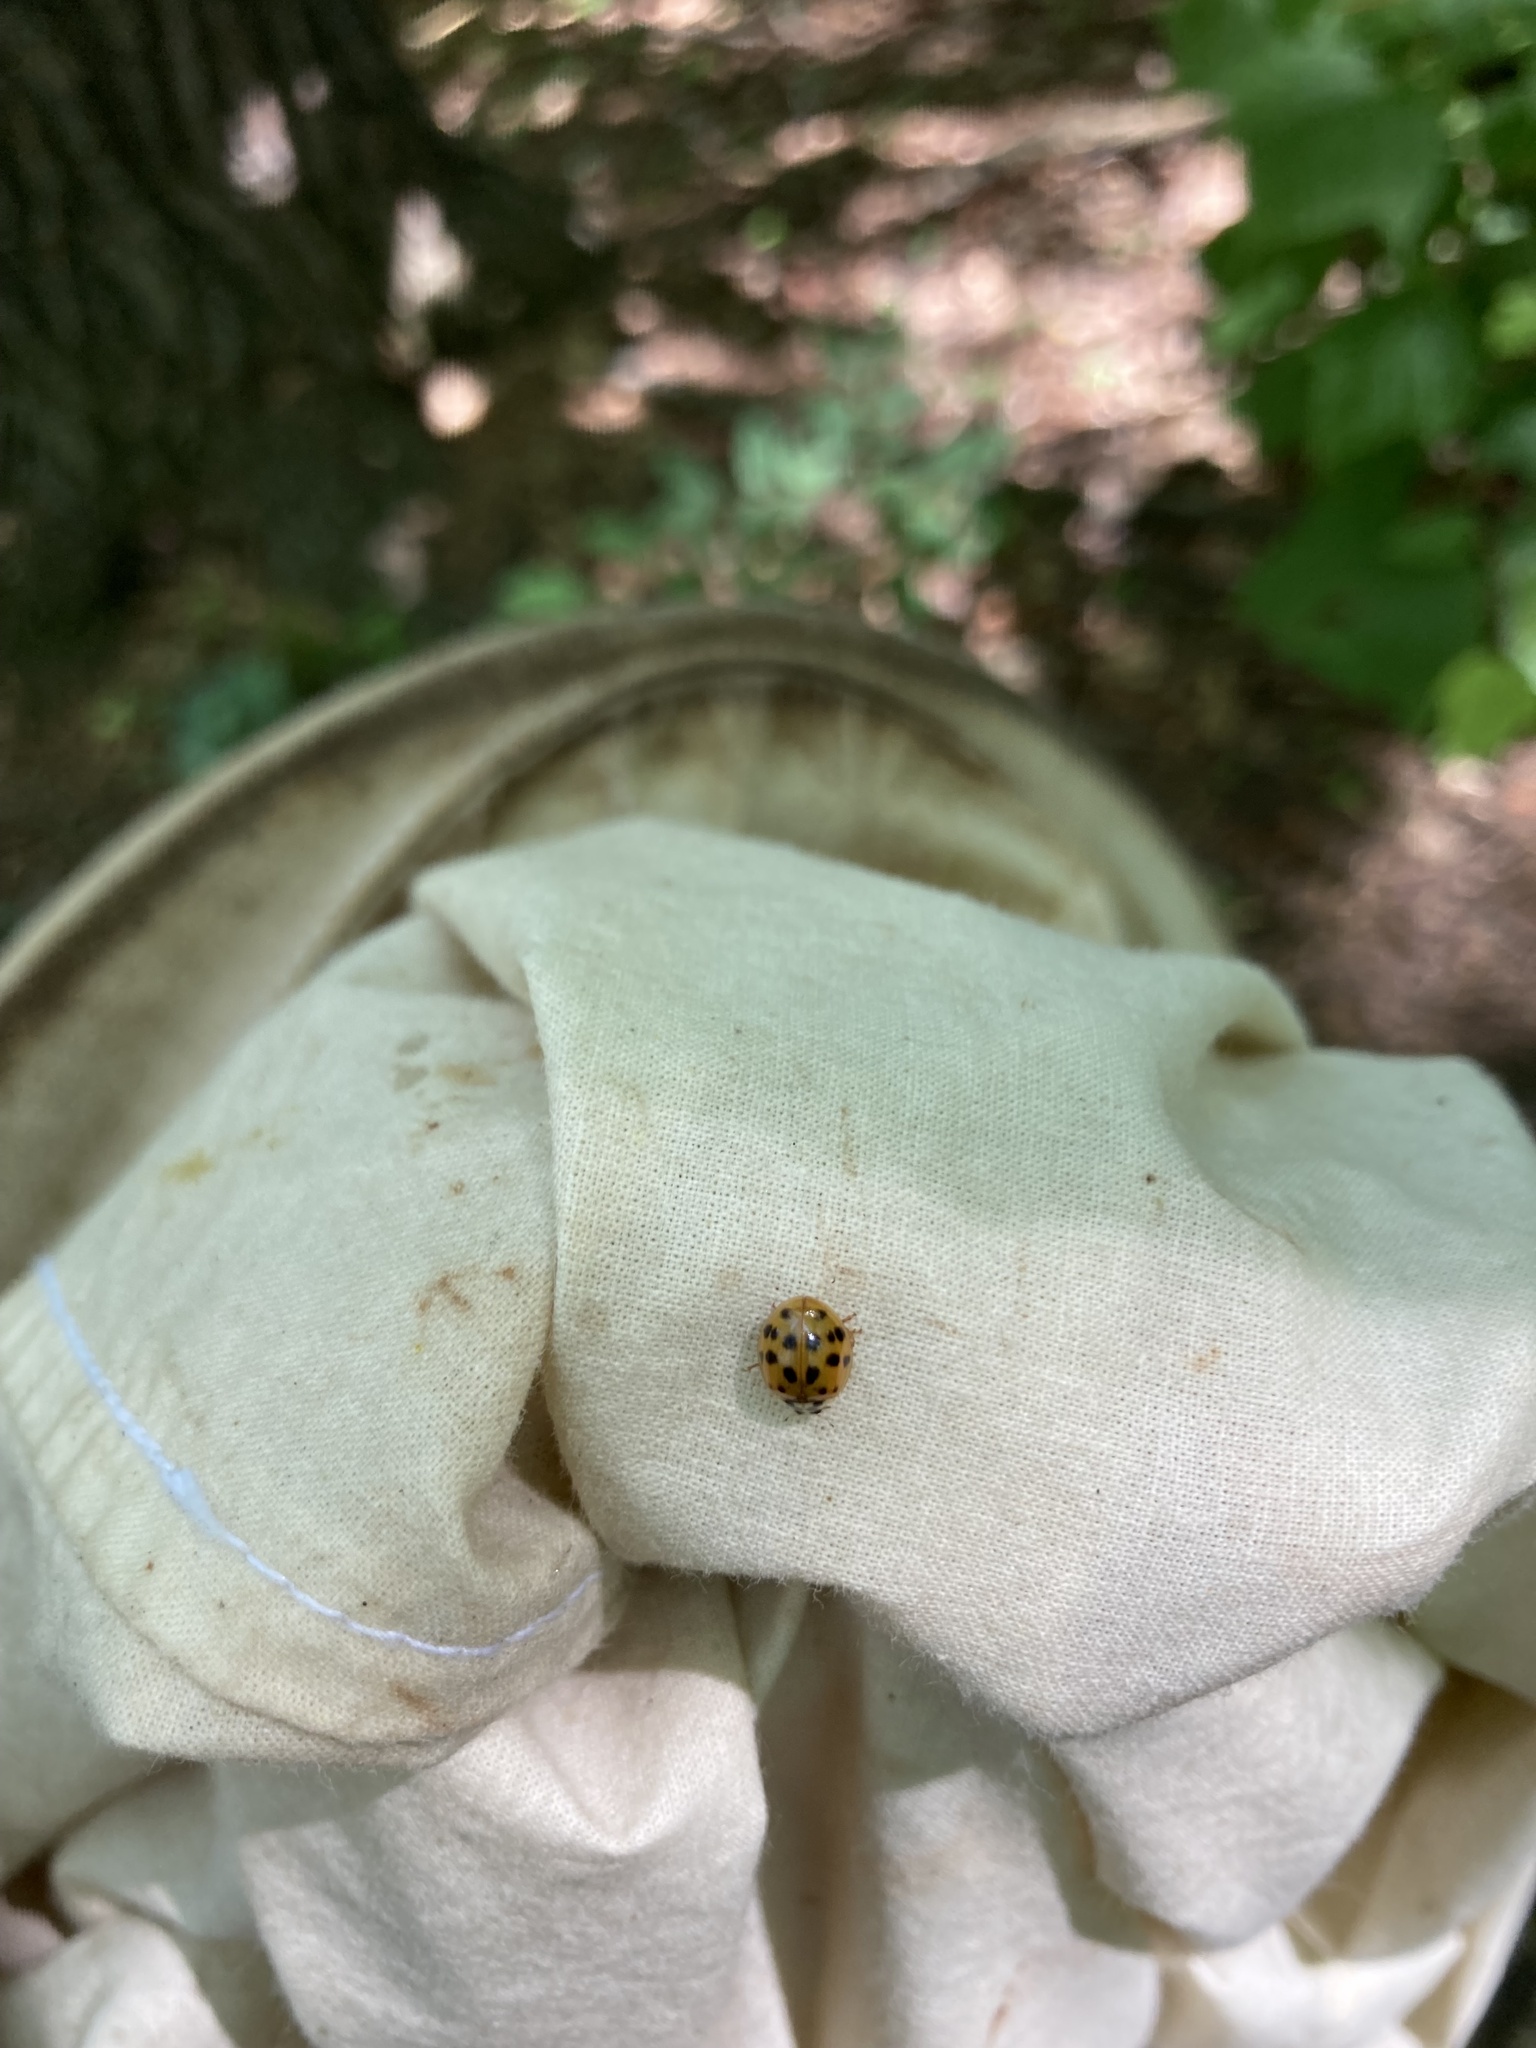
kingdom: Animalia
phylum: Arthropoda
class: Insecta
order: Coleoptera
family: Coccinellidae
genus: Harmonia
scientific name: Harmonia axyridis
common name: Harlequin ladybird
